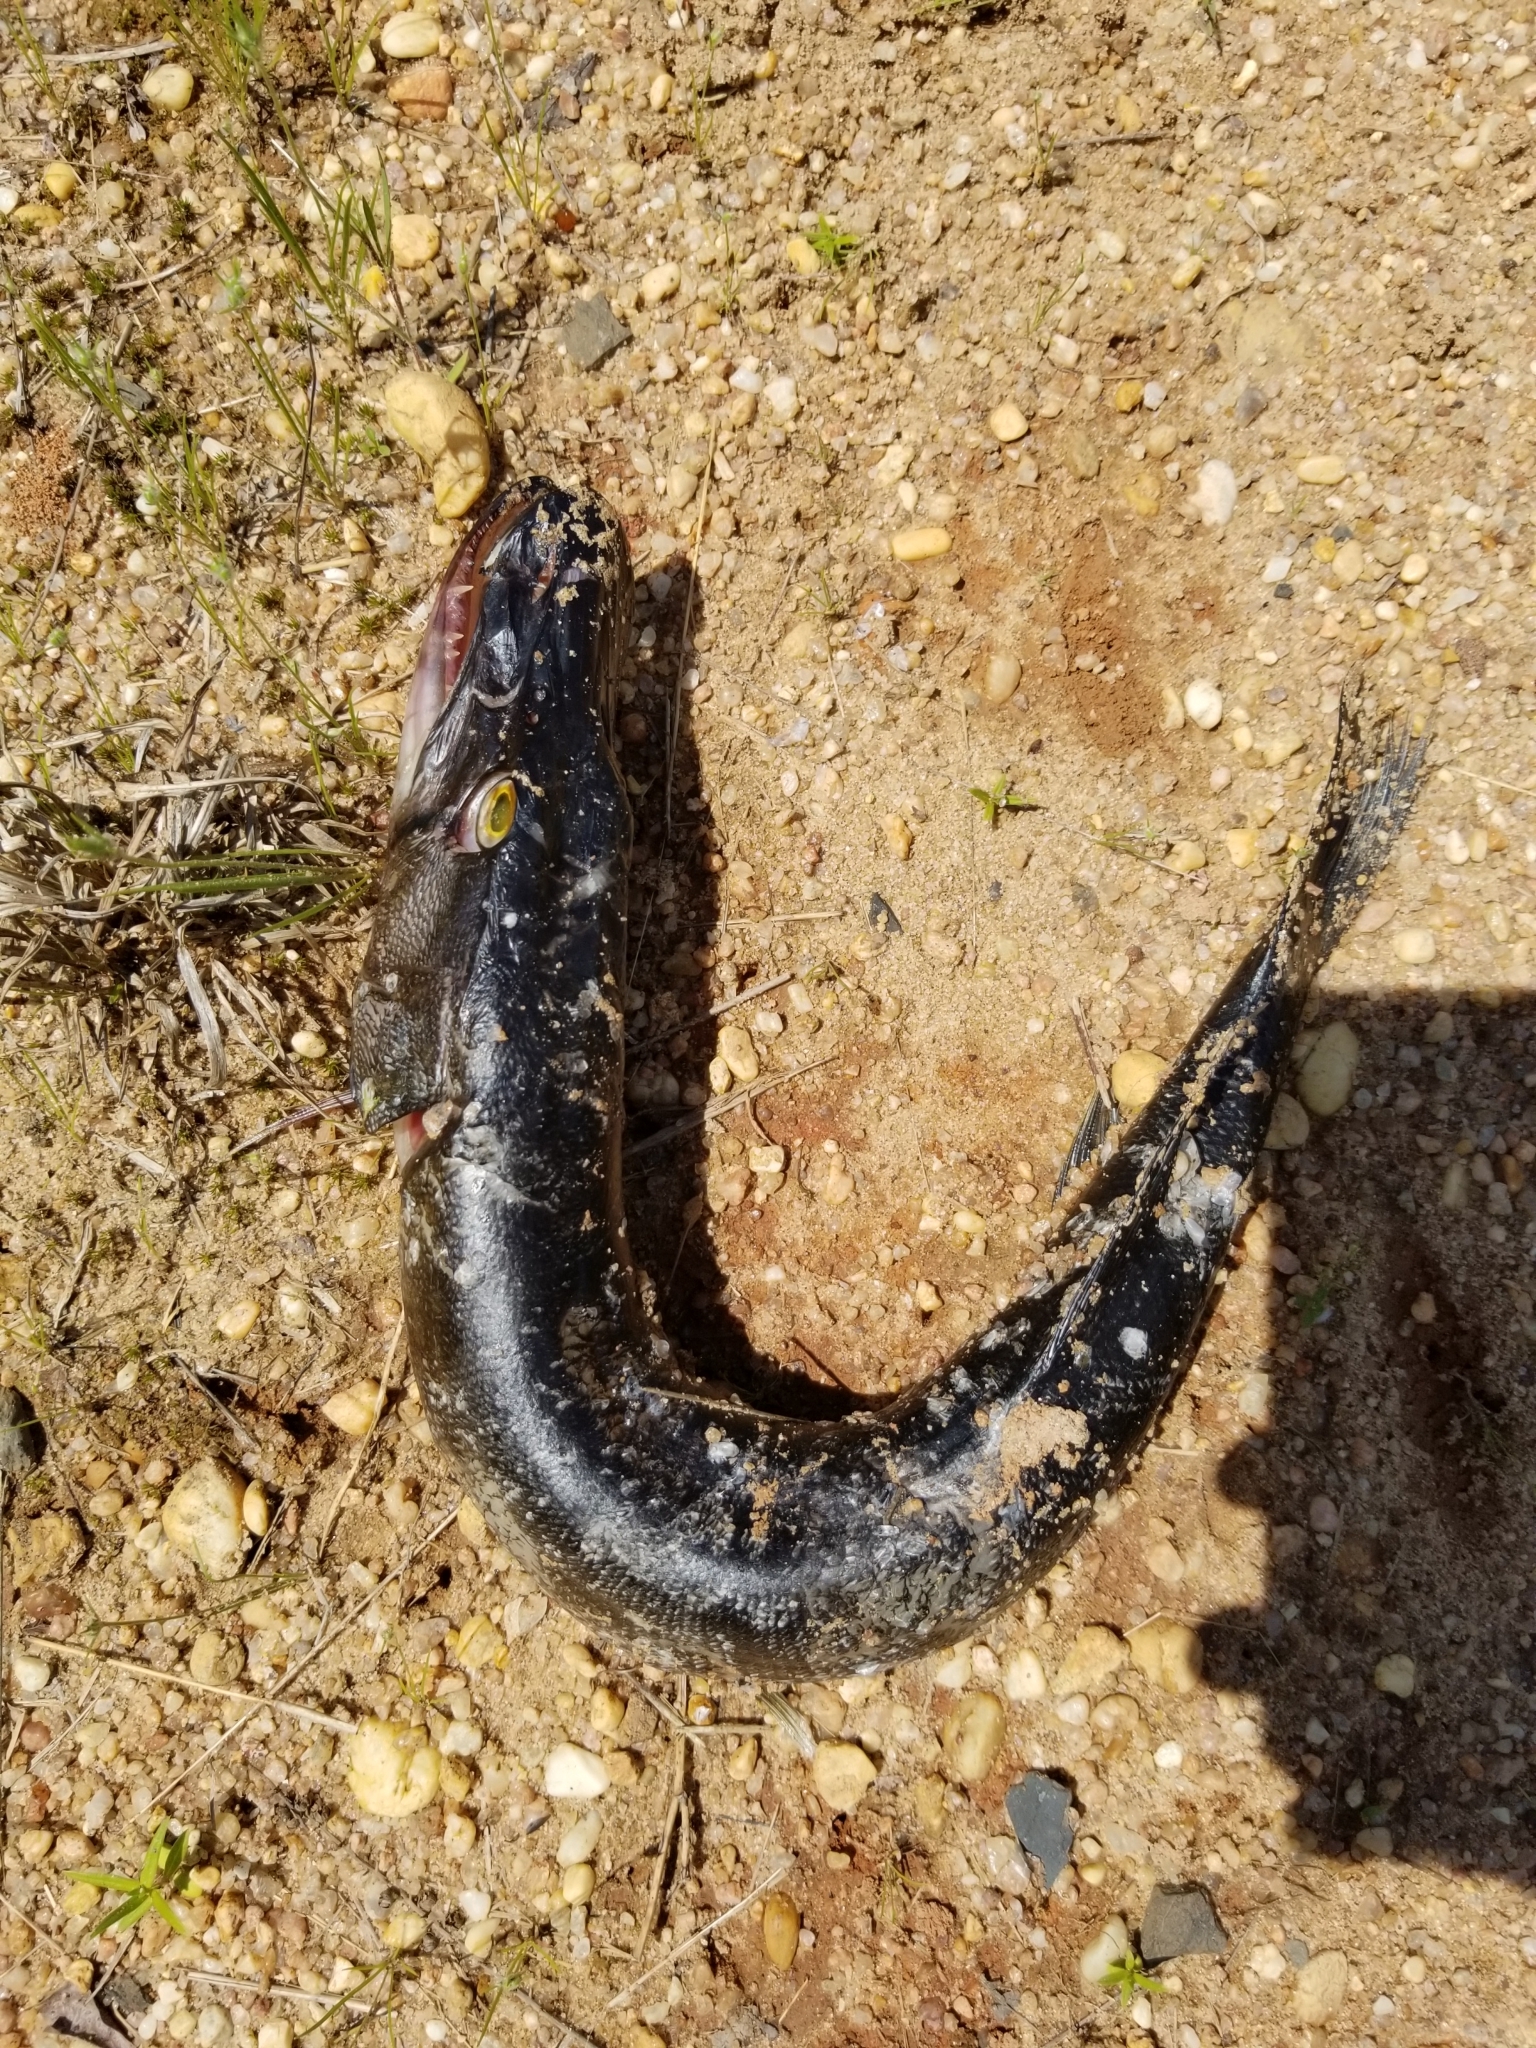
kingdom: Animalia
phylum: Chordata
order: Esociformes
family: Esocidae
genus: Esox
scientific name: Esox niger
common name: Chain pickerel
